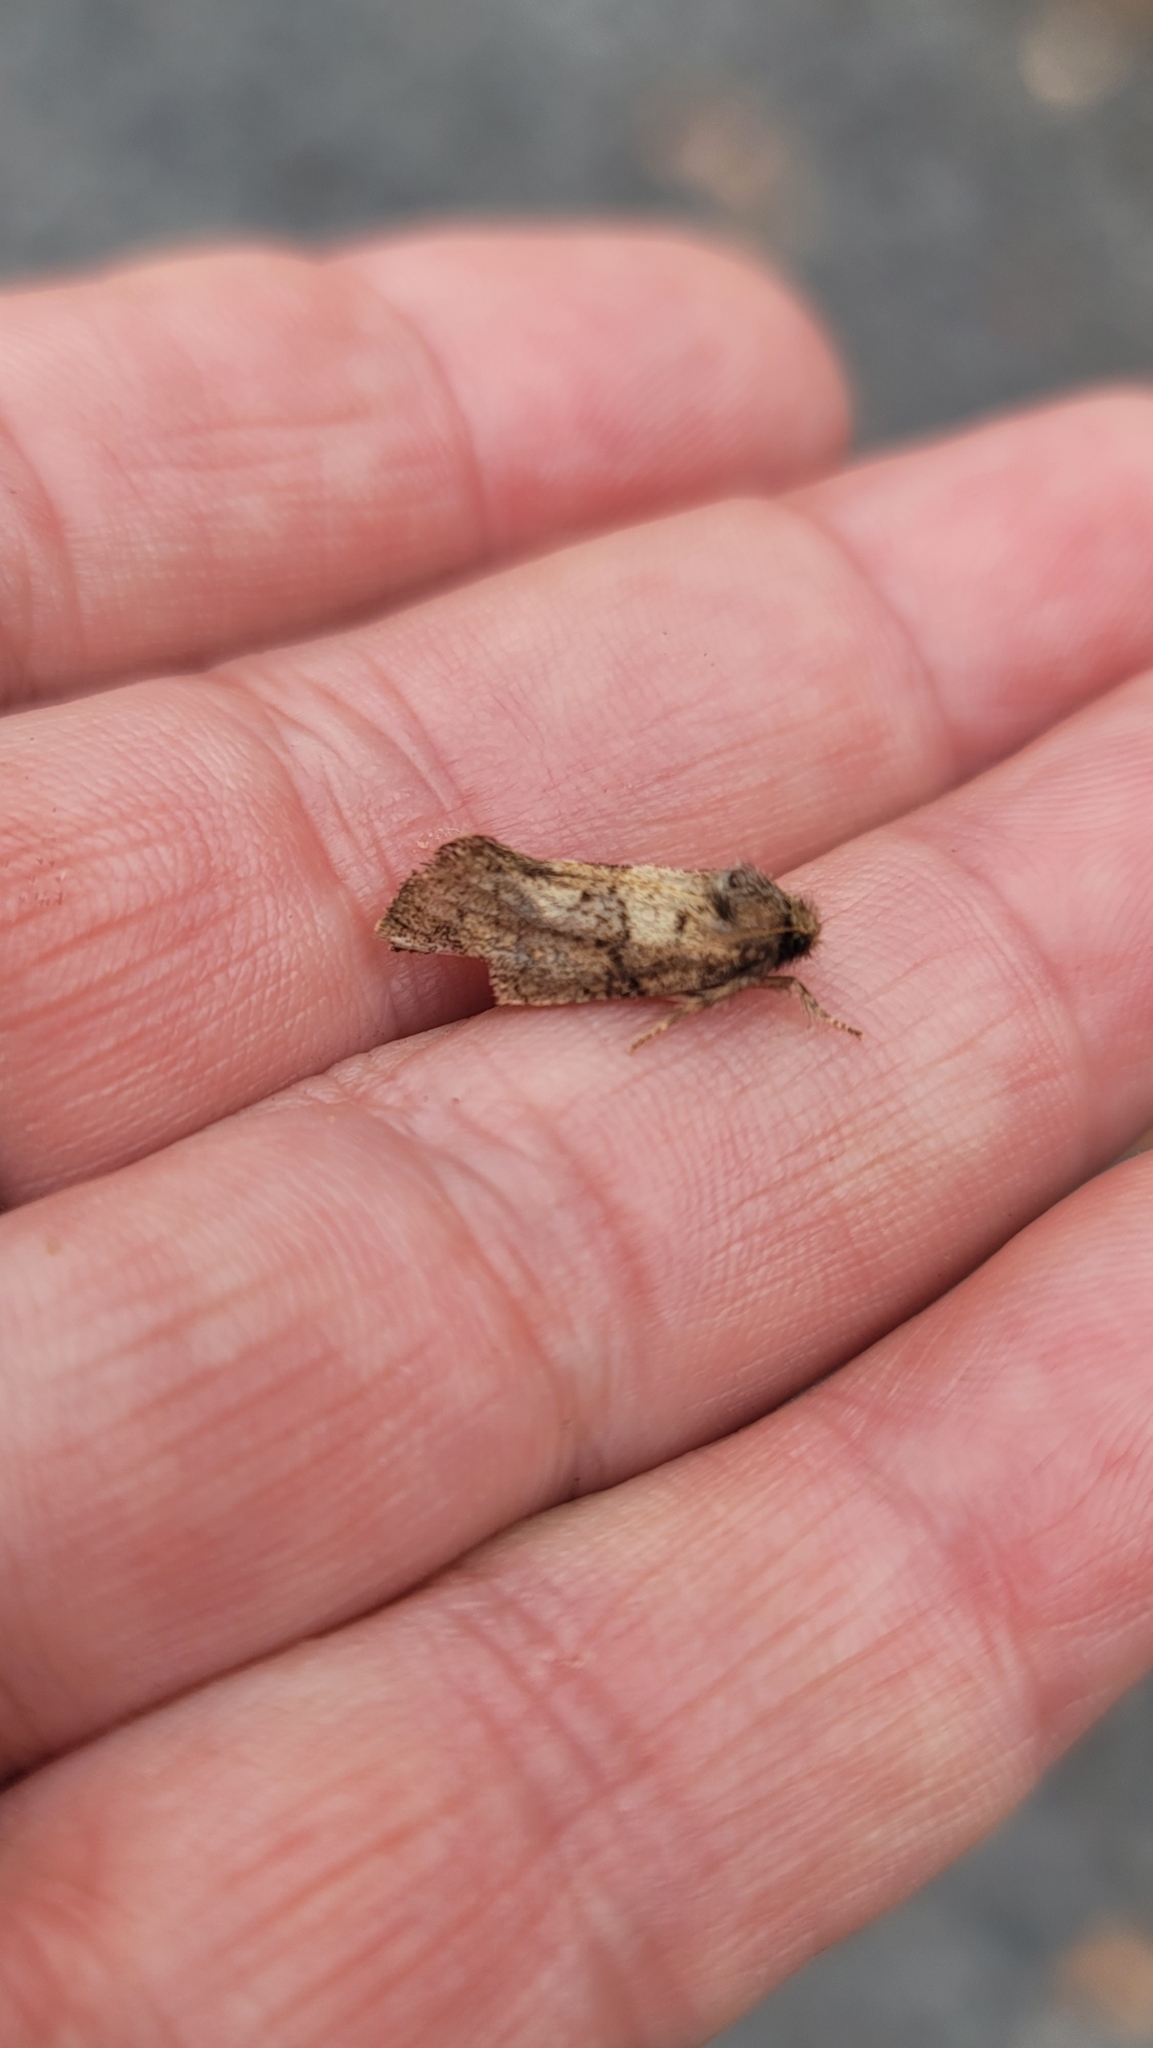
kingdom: Animalia
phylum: Arthropoda
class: Insecta
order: Lepidoptera
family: Tineidae
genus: Acrolophus
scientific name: Acrolophus mora
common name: Dark acrolophus
